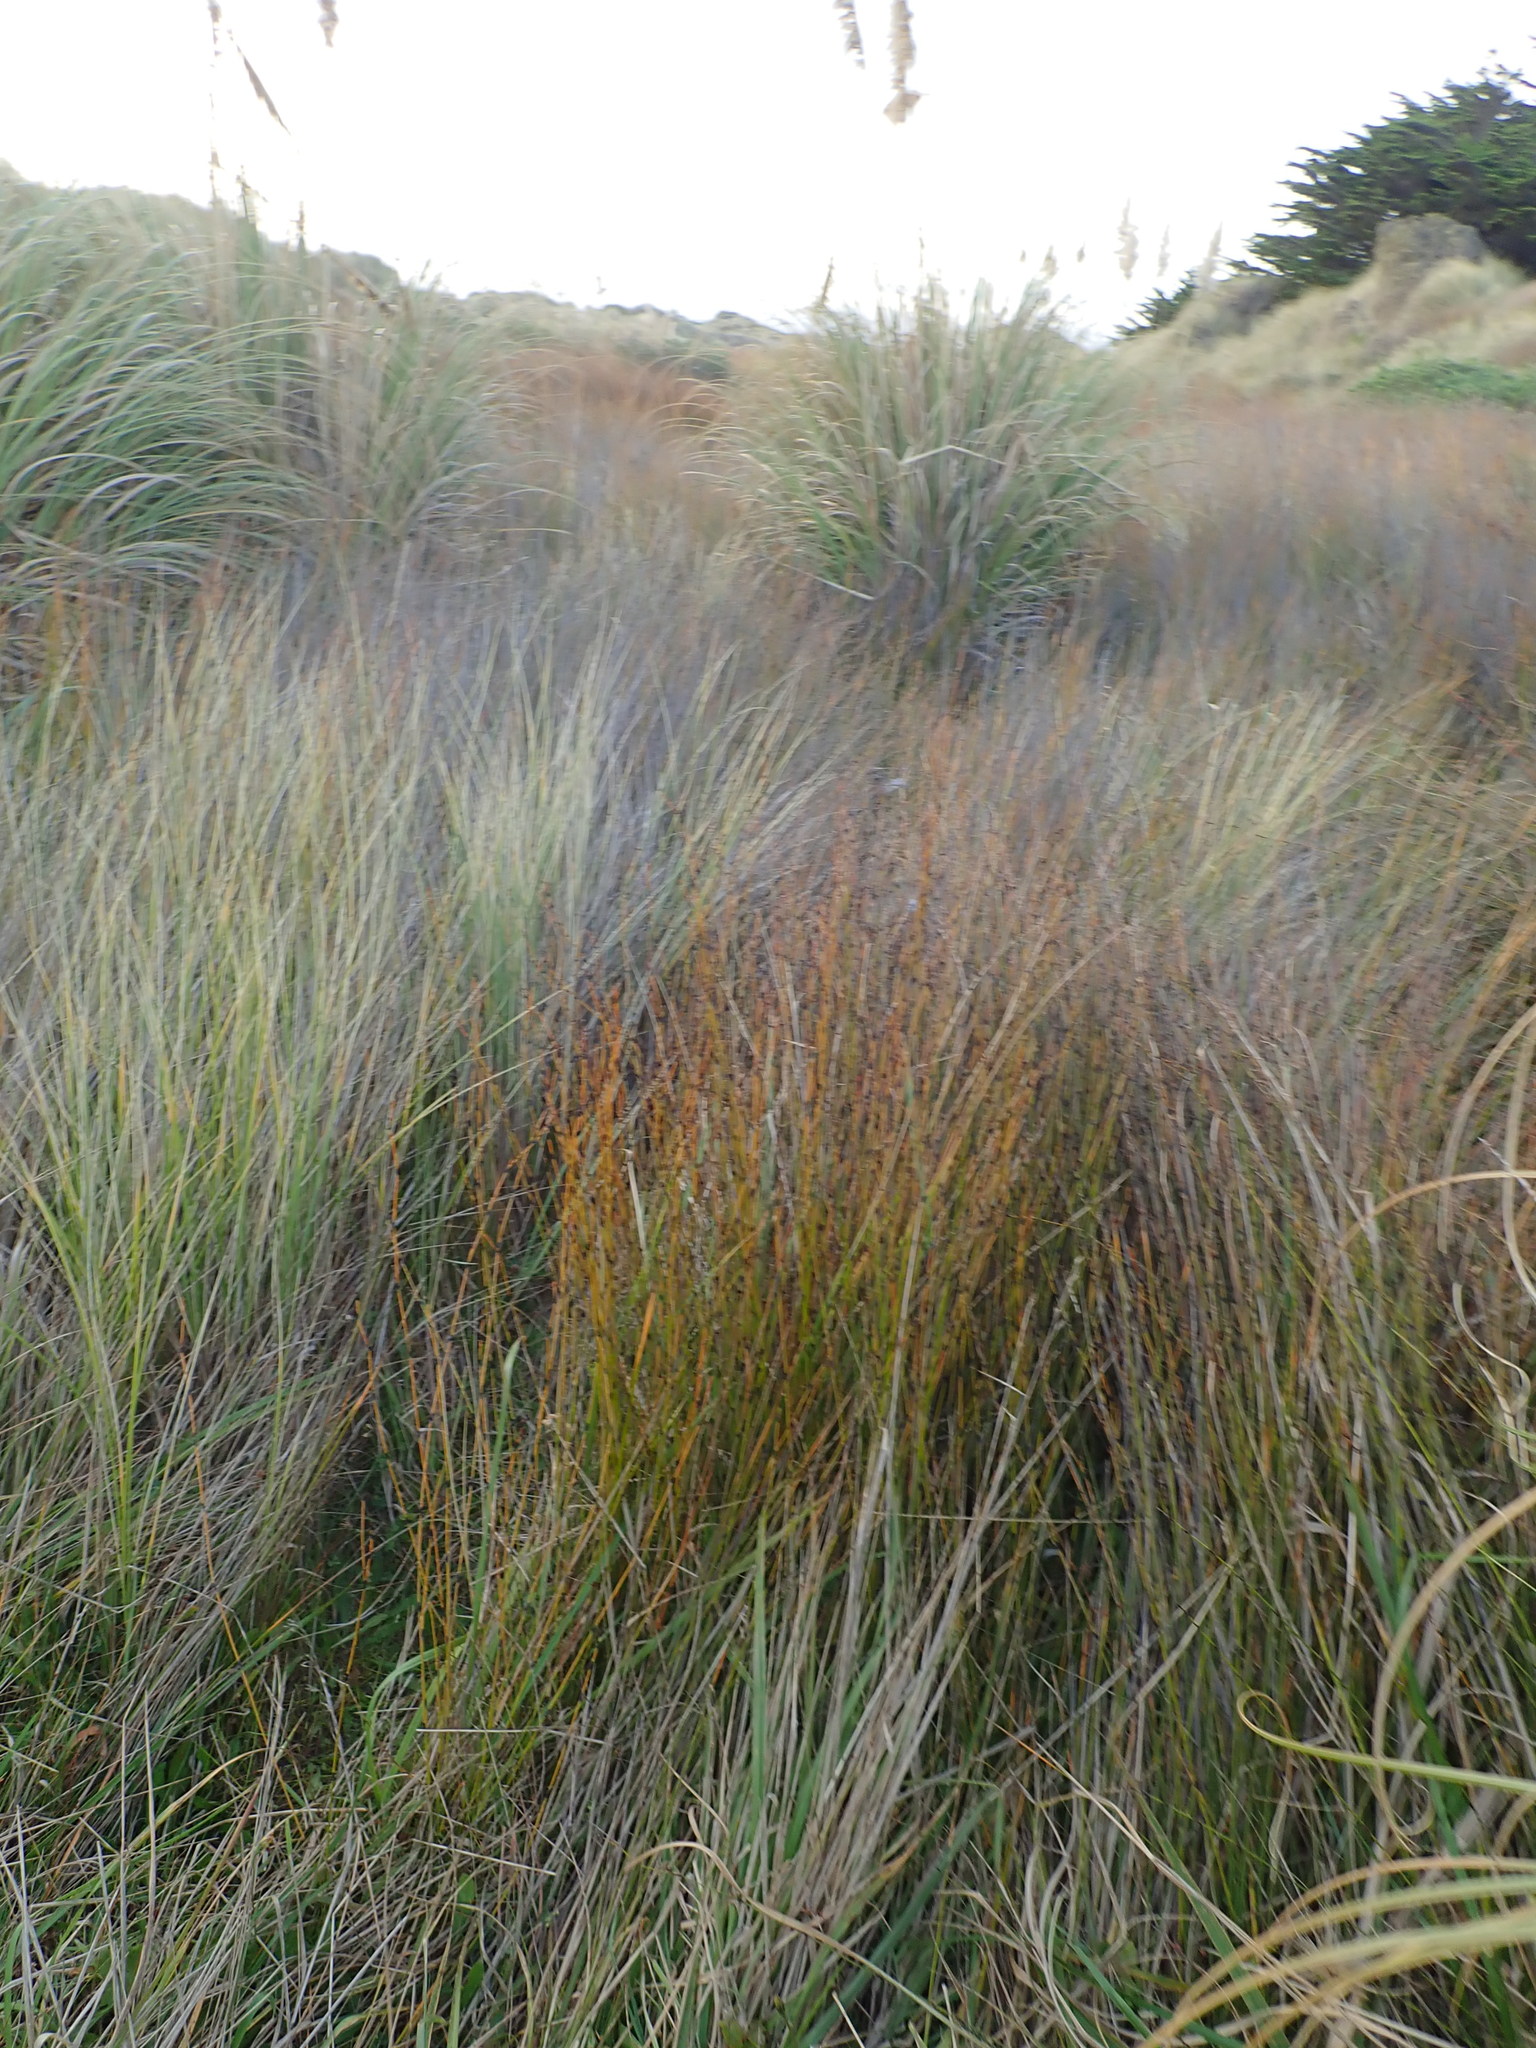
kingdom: Plantae
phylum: Tracheophyta
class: Liliopsida
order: Poales
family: Restionaceae
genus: Apodasmia
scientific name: Apodasmia similis
